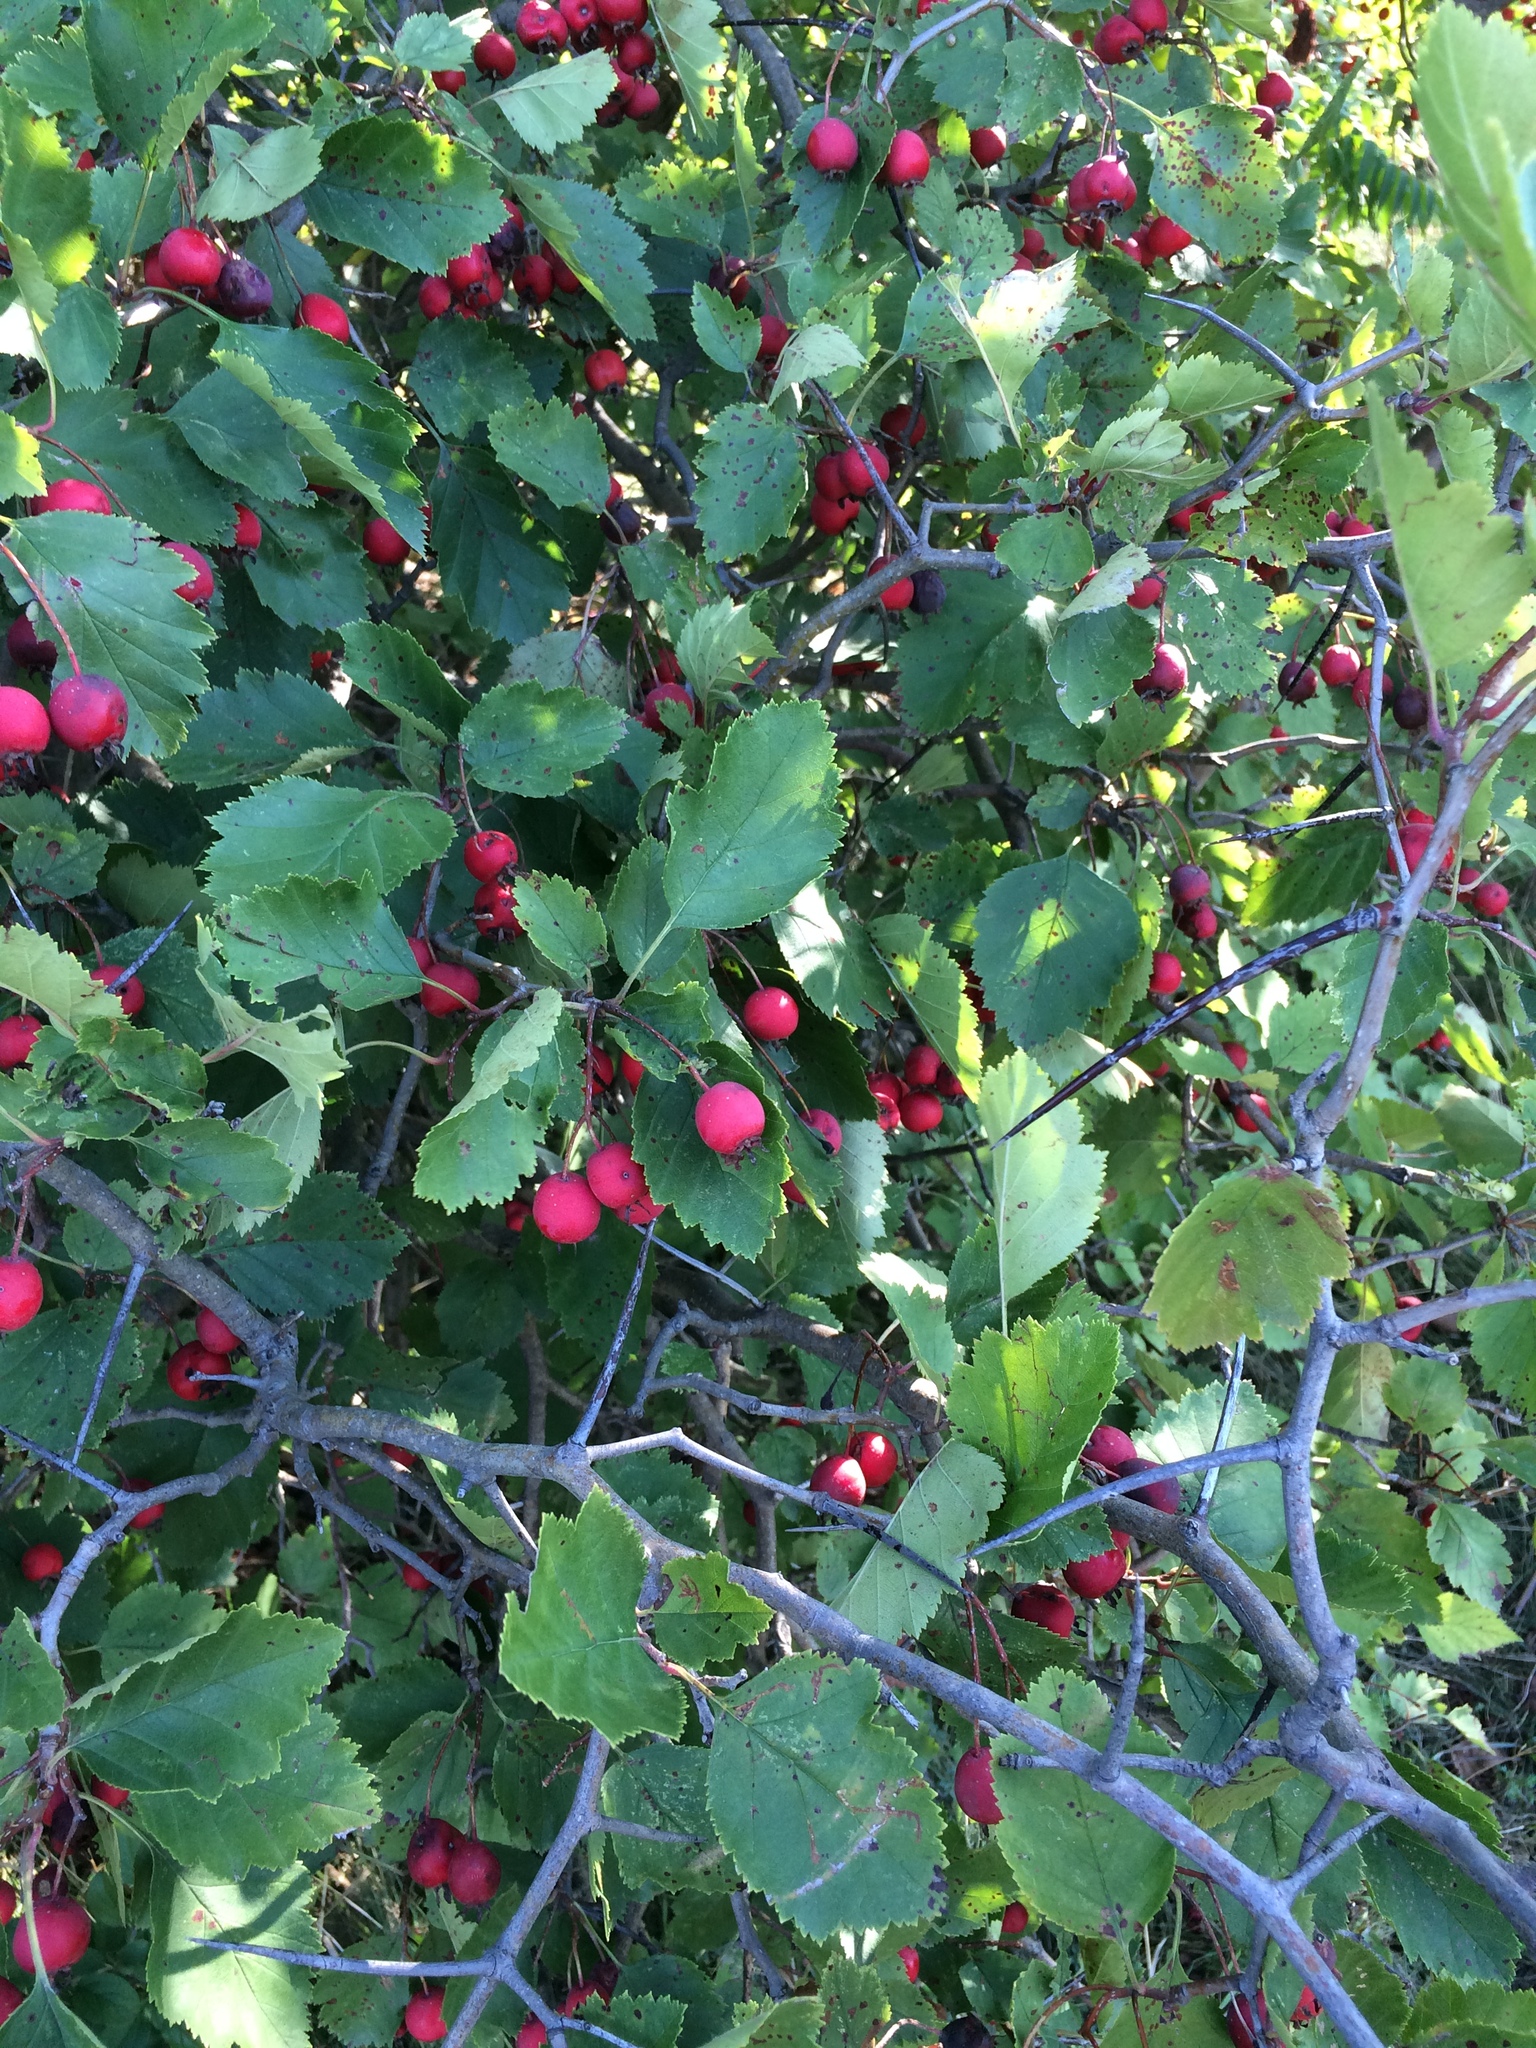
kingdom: Plantae
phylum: Tracheophyta
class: Magnoliopsida
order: Rosales
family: Rosaceae
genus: Crataegus
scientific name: Crataegus submollis
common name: Hairy cockspurthorn
